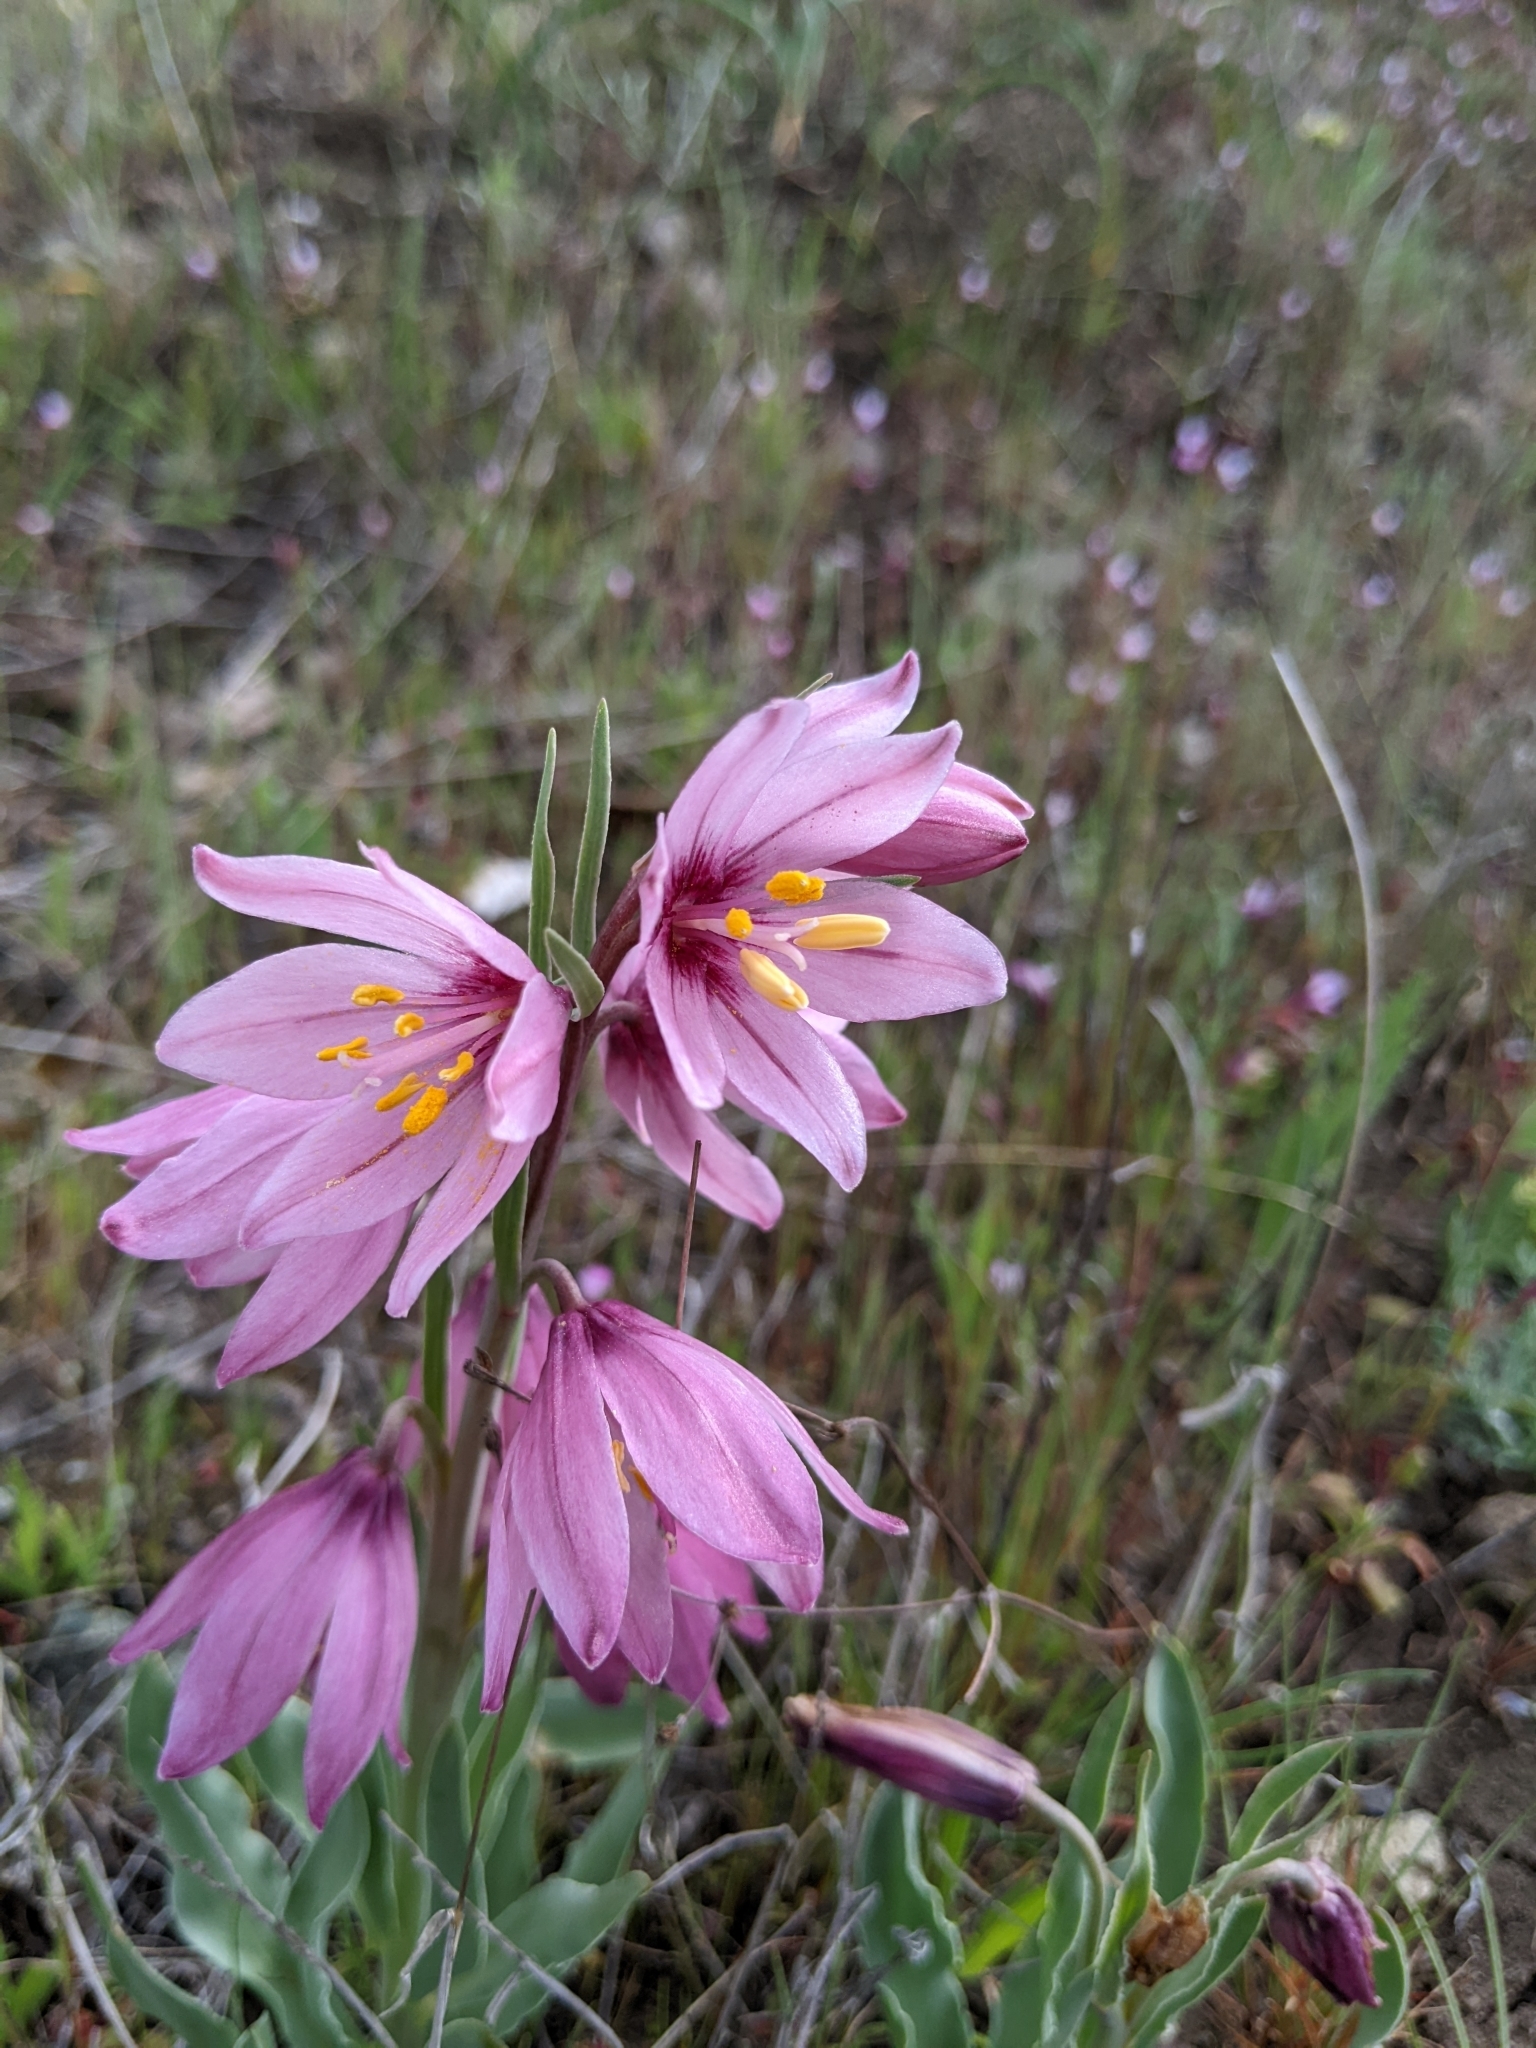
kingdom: Plantae
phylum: Tracheophyta
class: Liliopsida
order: Liliales
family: Liliaceae
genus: Fritillaria
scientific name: Fritillaria pluriflora
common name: Adobe-lily
